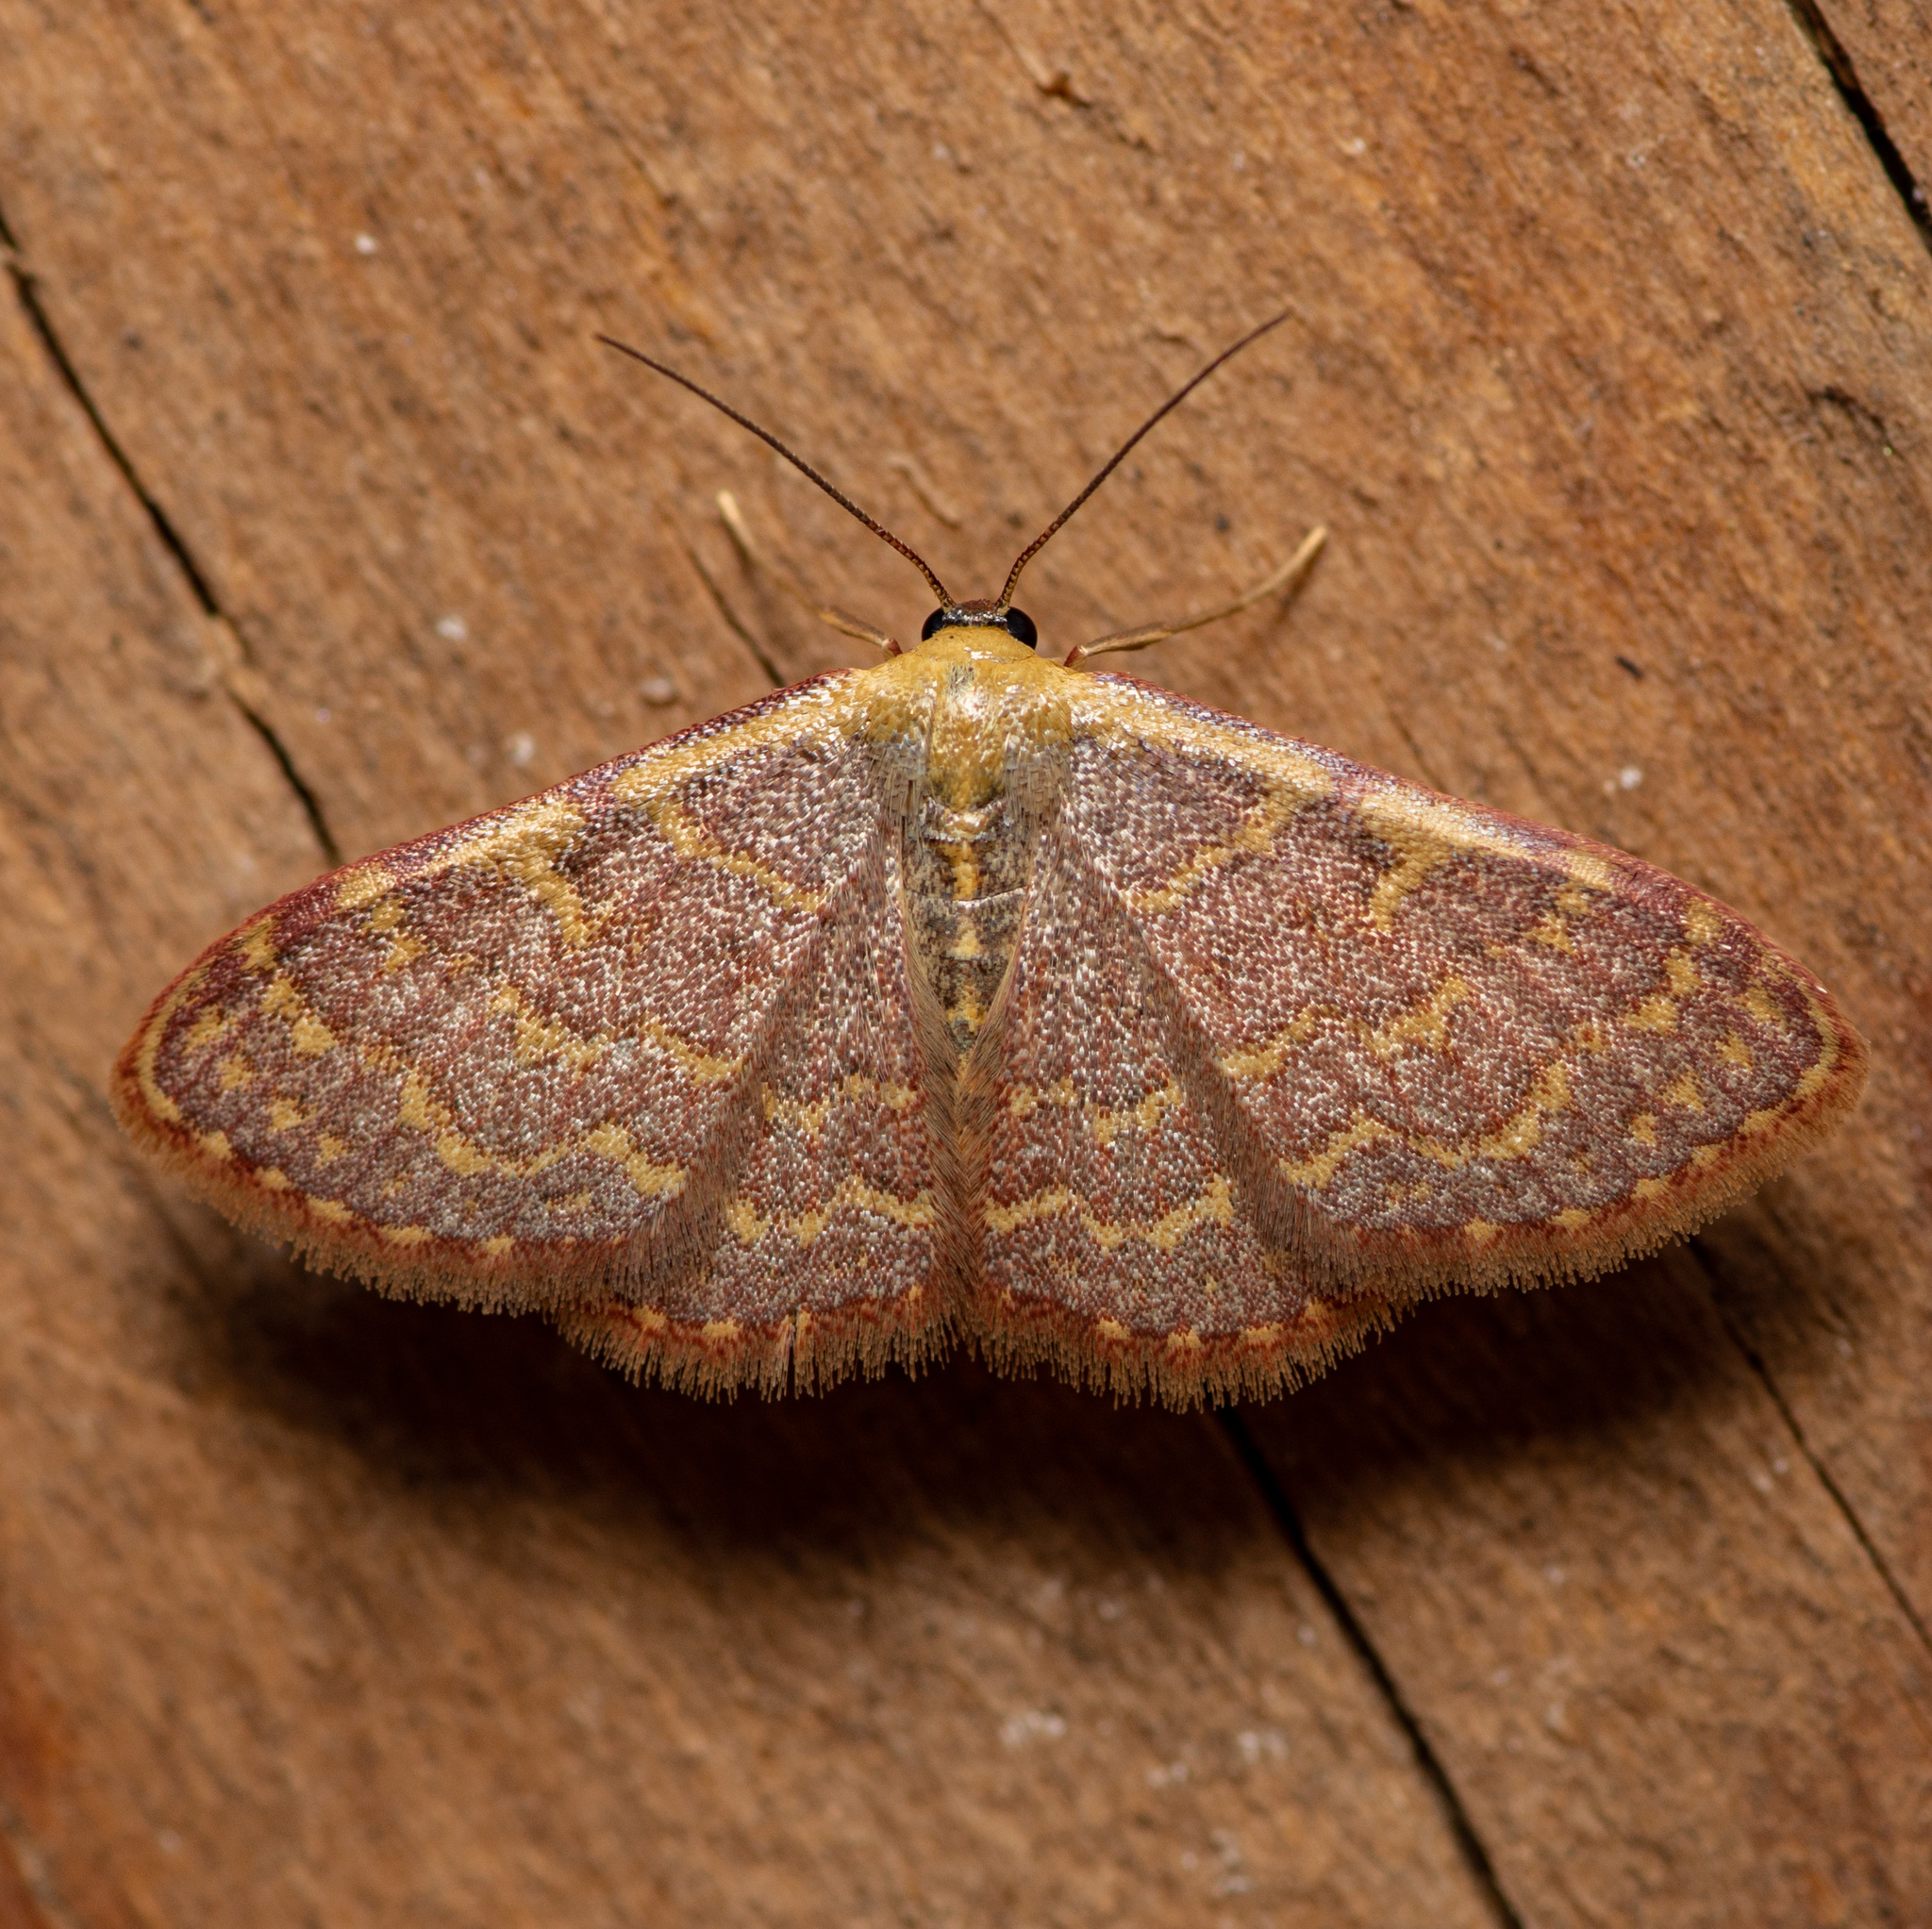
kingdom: Animalia
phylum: Arthropoda
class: Insecta
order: Lepidoptera
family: Geometridae
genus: Leptostales
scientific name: Leptostales pannaria
